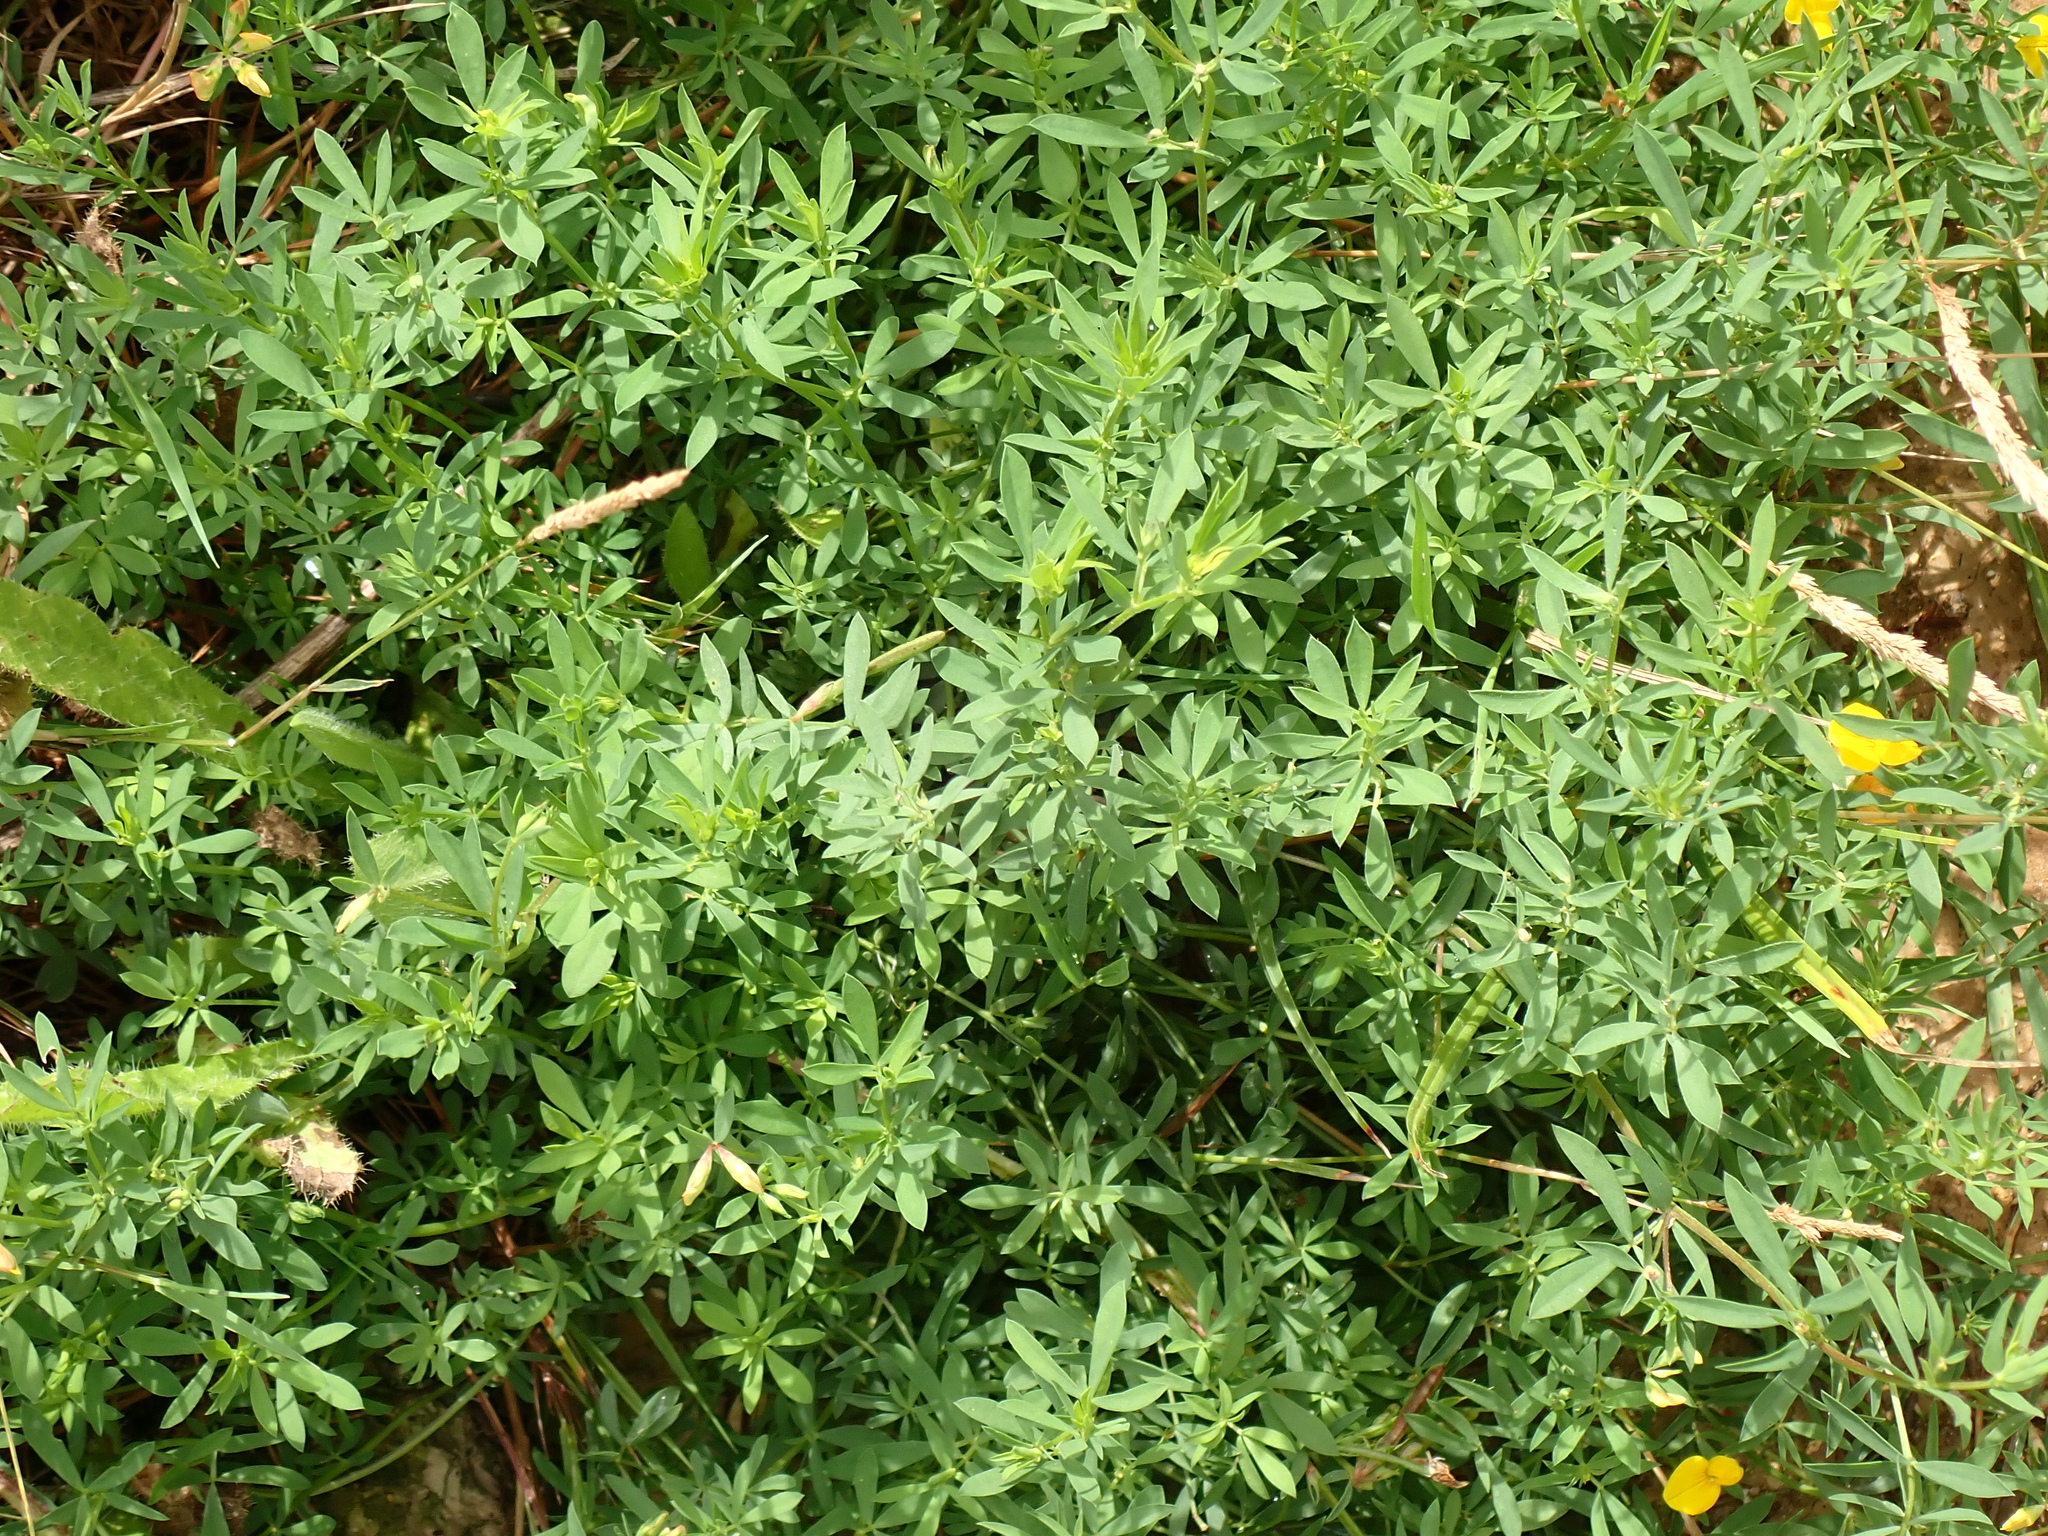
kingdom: Plantae
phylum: Tracheophyta
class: Magnoliopsida
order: Fabales
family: Fabaceae
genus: Lotus
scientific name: Lotus tenuis
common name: Narrow-leaved bird's-foot-trefoil
